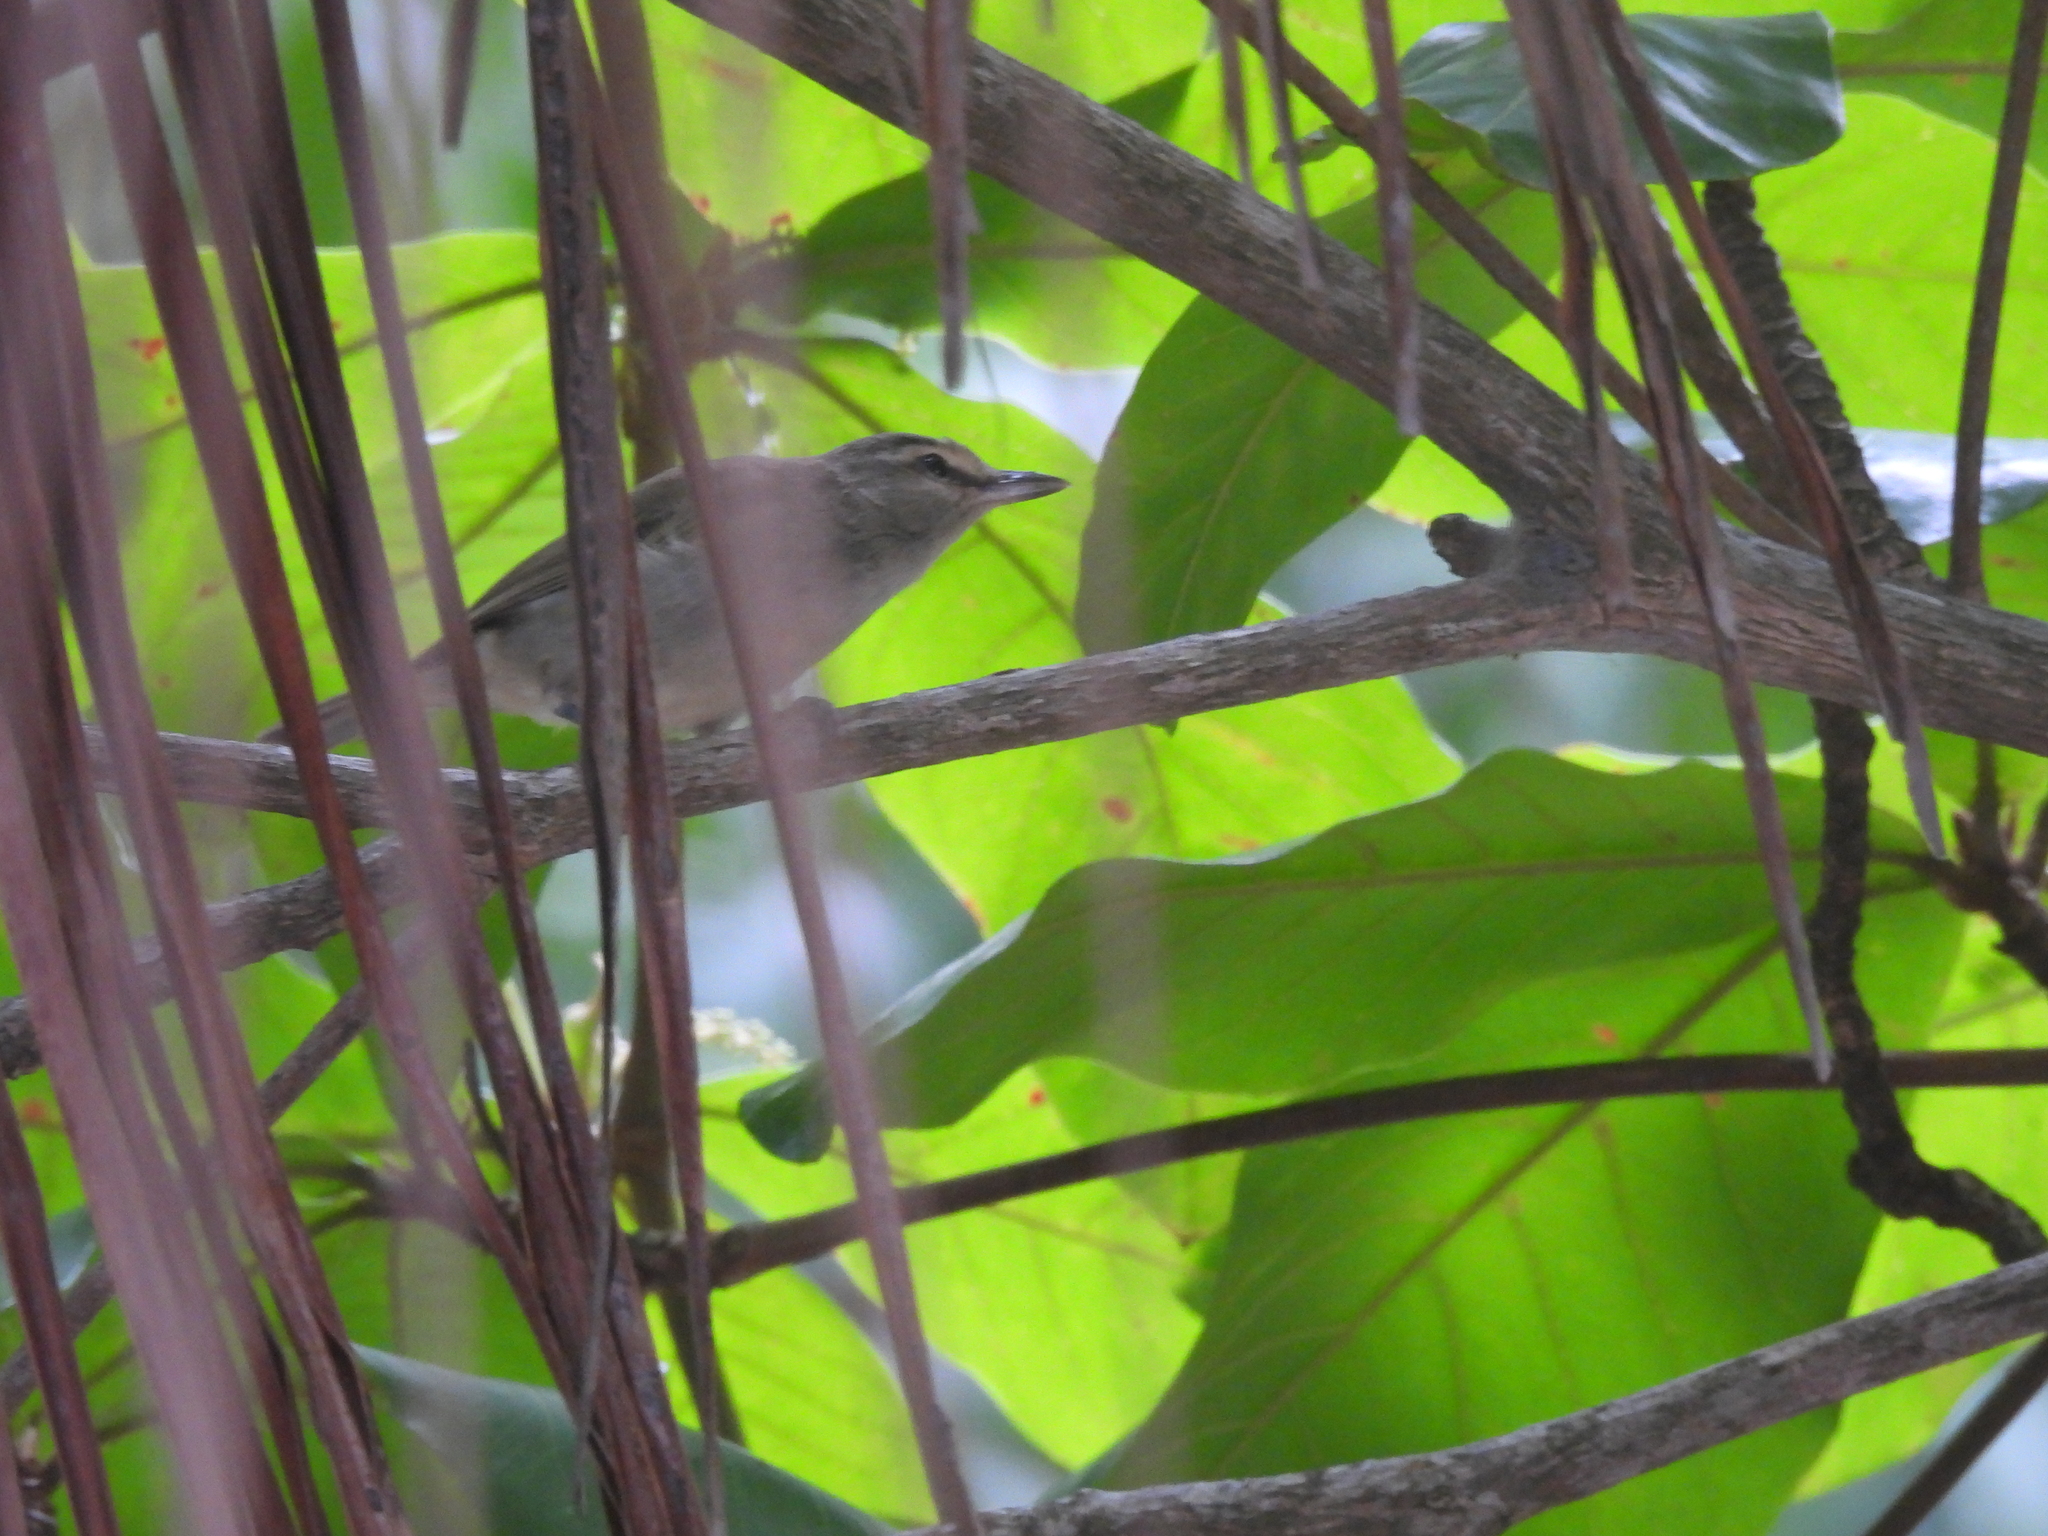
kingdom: Animalia
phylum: Chordata
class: Aves
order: Passeriformes
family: Vireonidae
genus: Vireo
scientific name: Vireo magister
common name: Yucatan vireo
